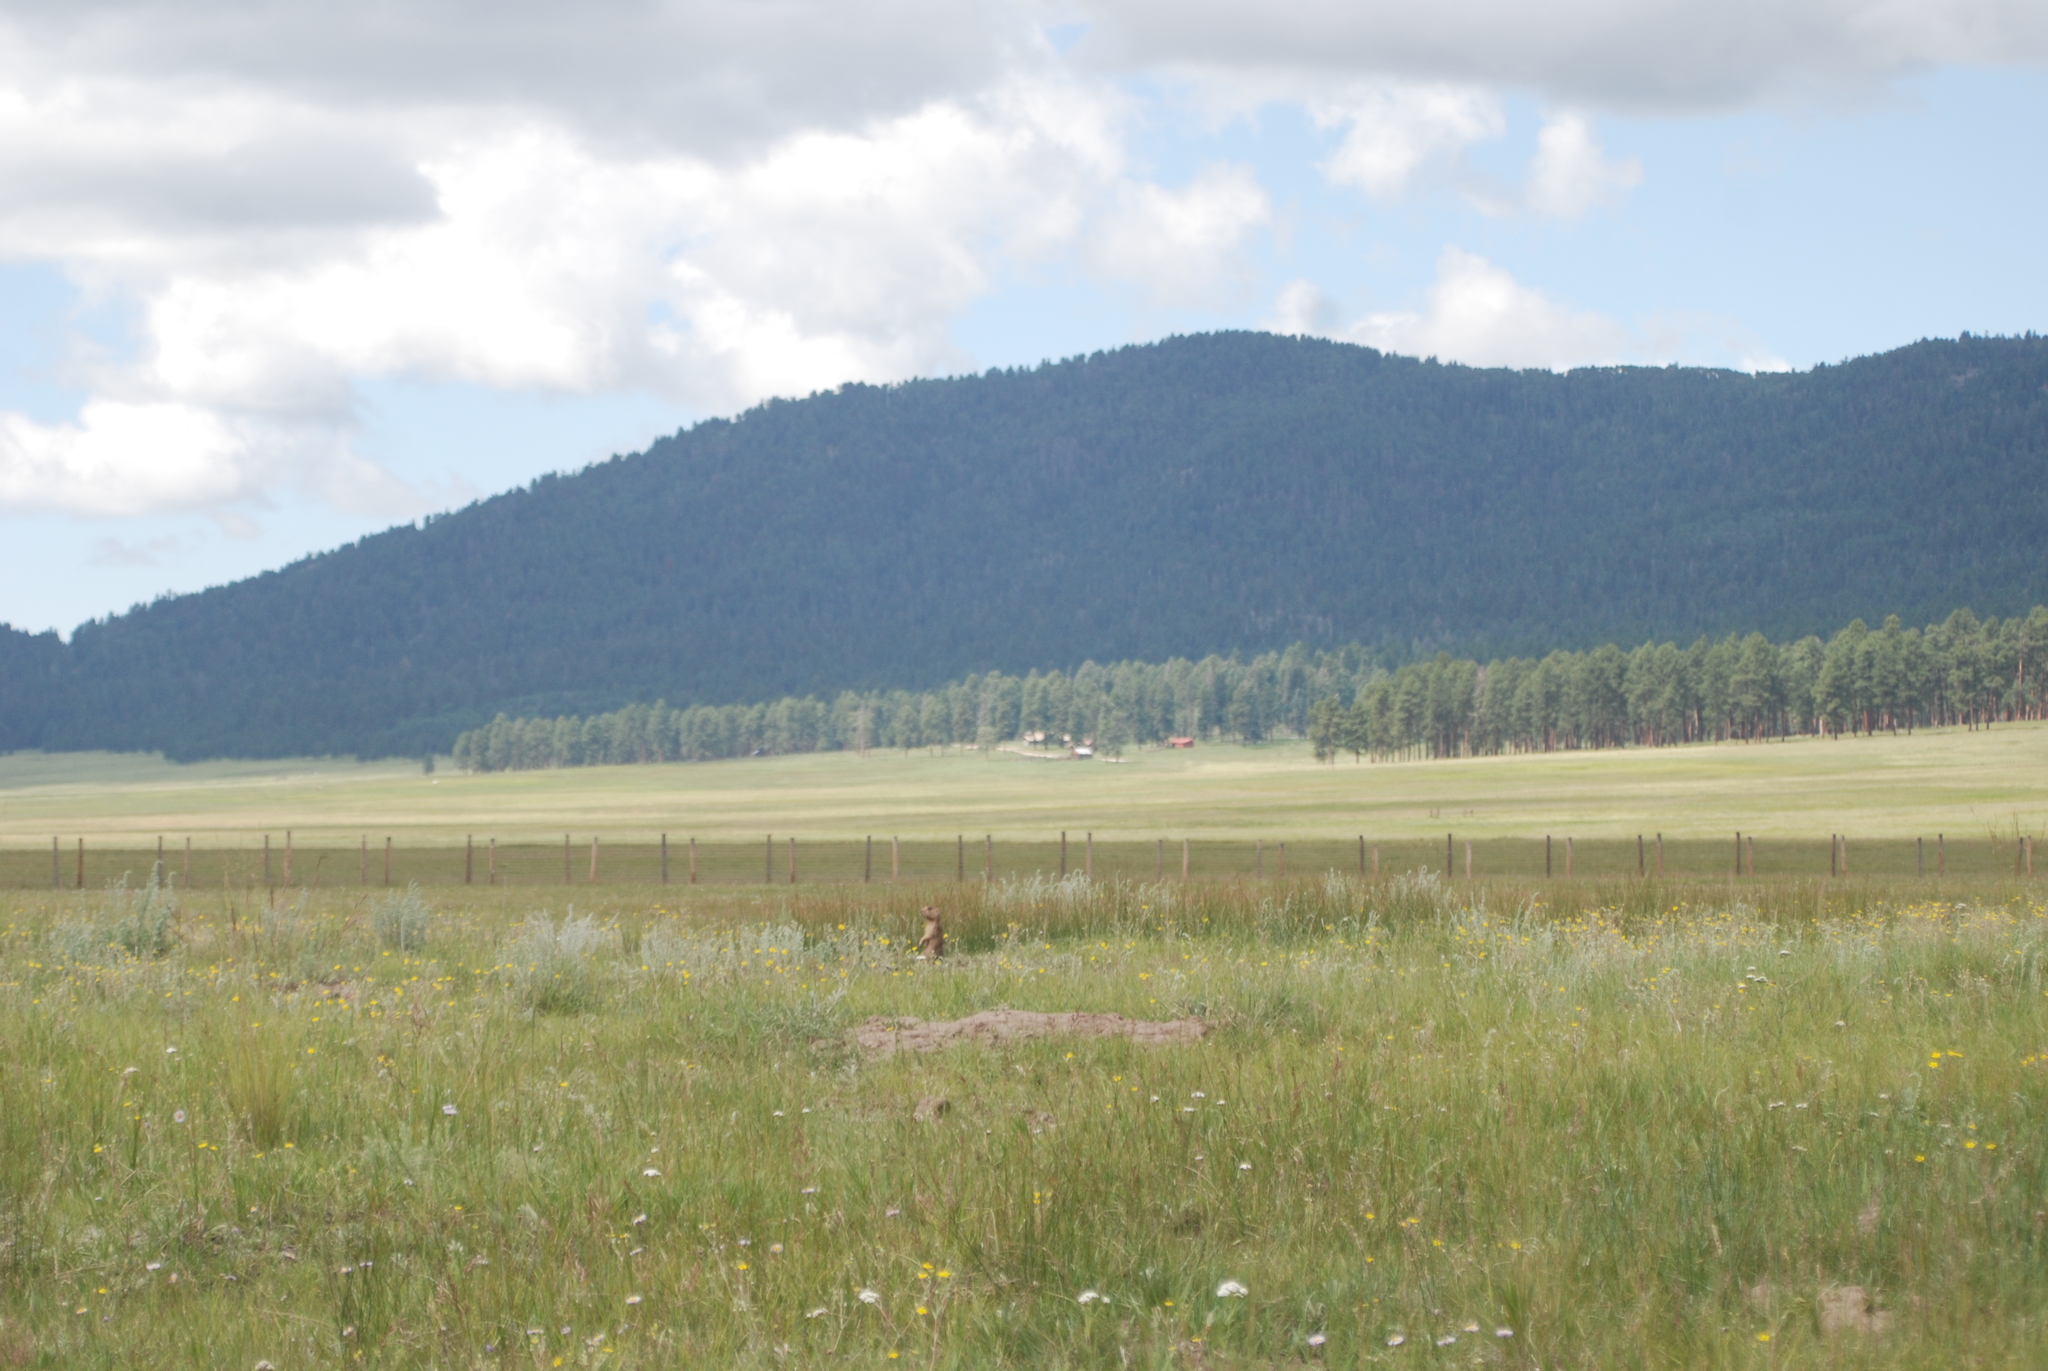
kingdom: Animalia
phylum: Chordata
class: Mammalia
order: Rodentia
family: Sciuridae
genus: Cynomys
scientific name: Cynomys gunnisoni
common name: Gunnison's prairie dog
